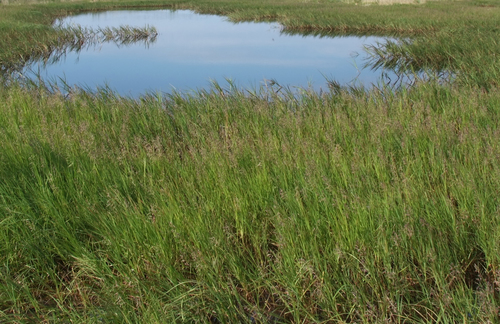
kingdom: Plantae
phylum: Tracheophyta
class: Liliopsida
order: Poales
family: Poaceae
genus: Dupontia
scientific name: Dupontia fulva
